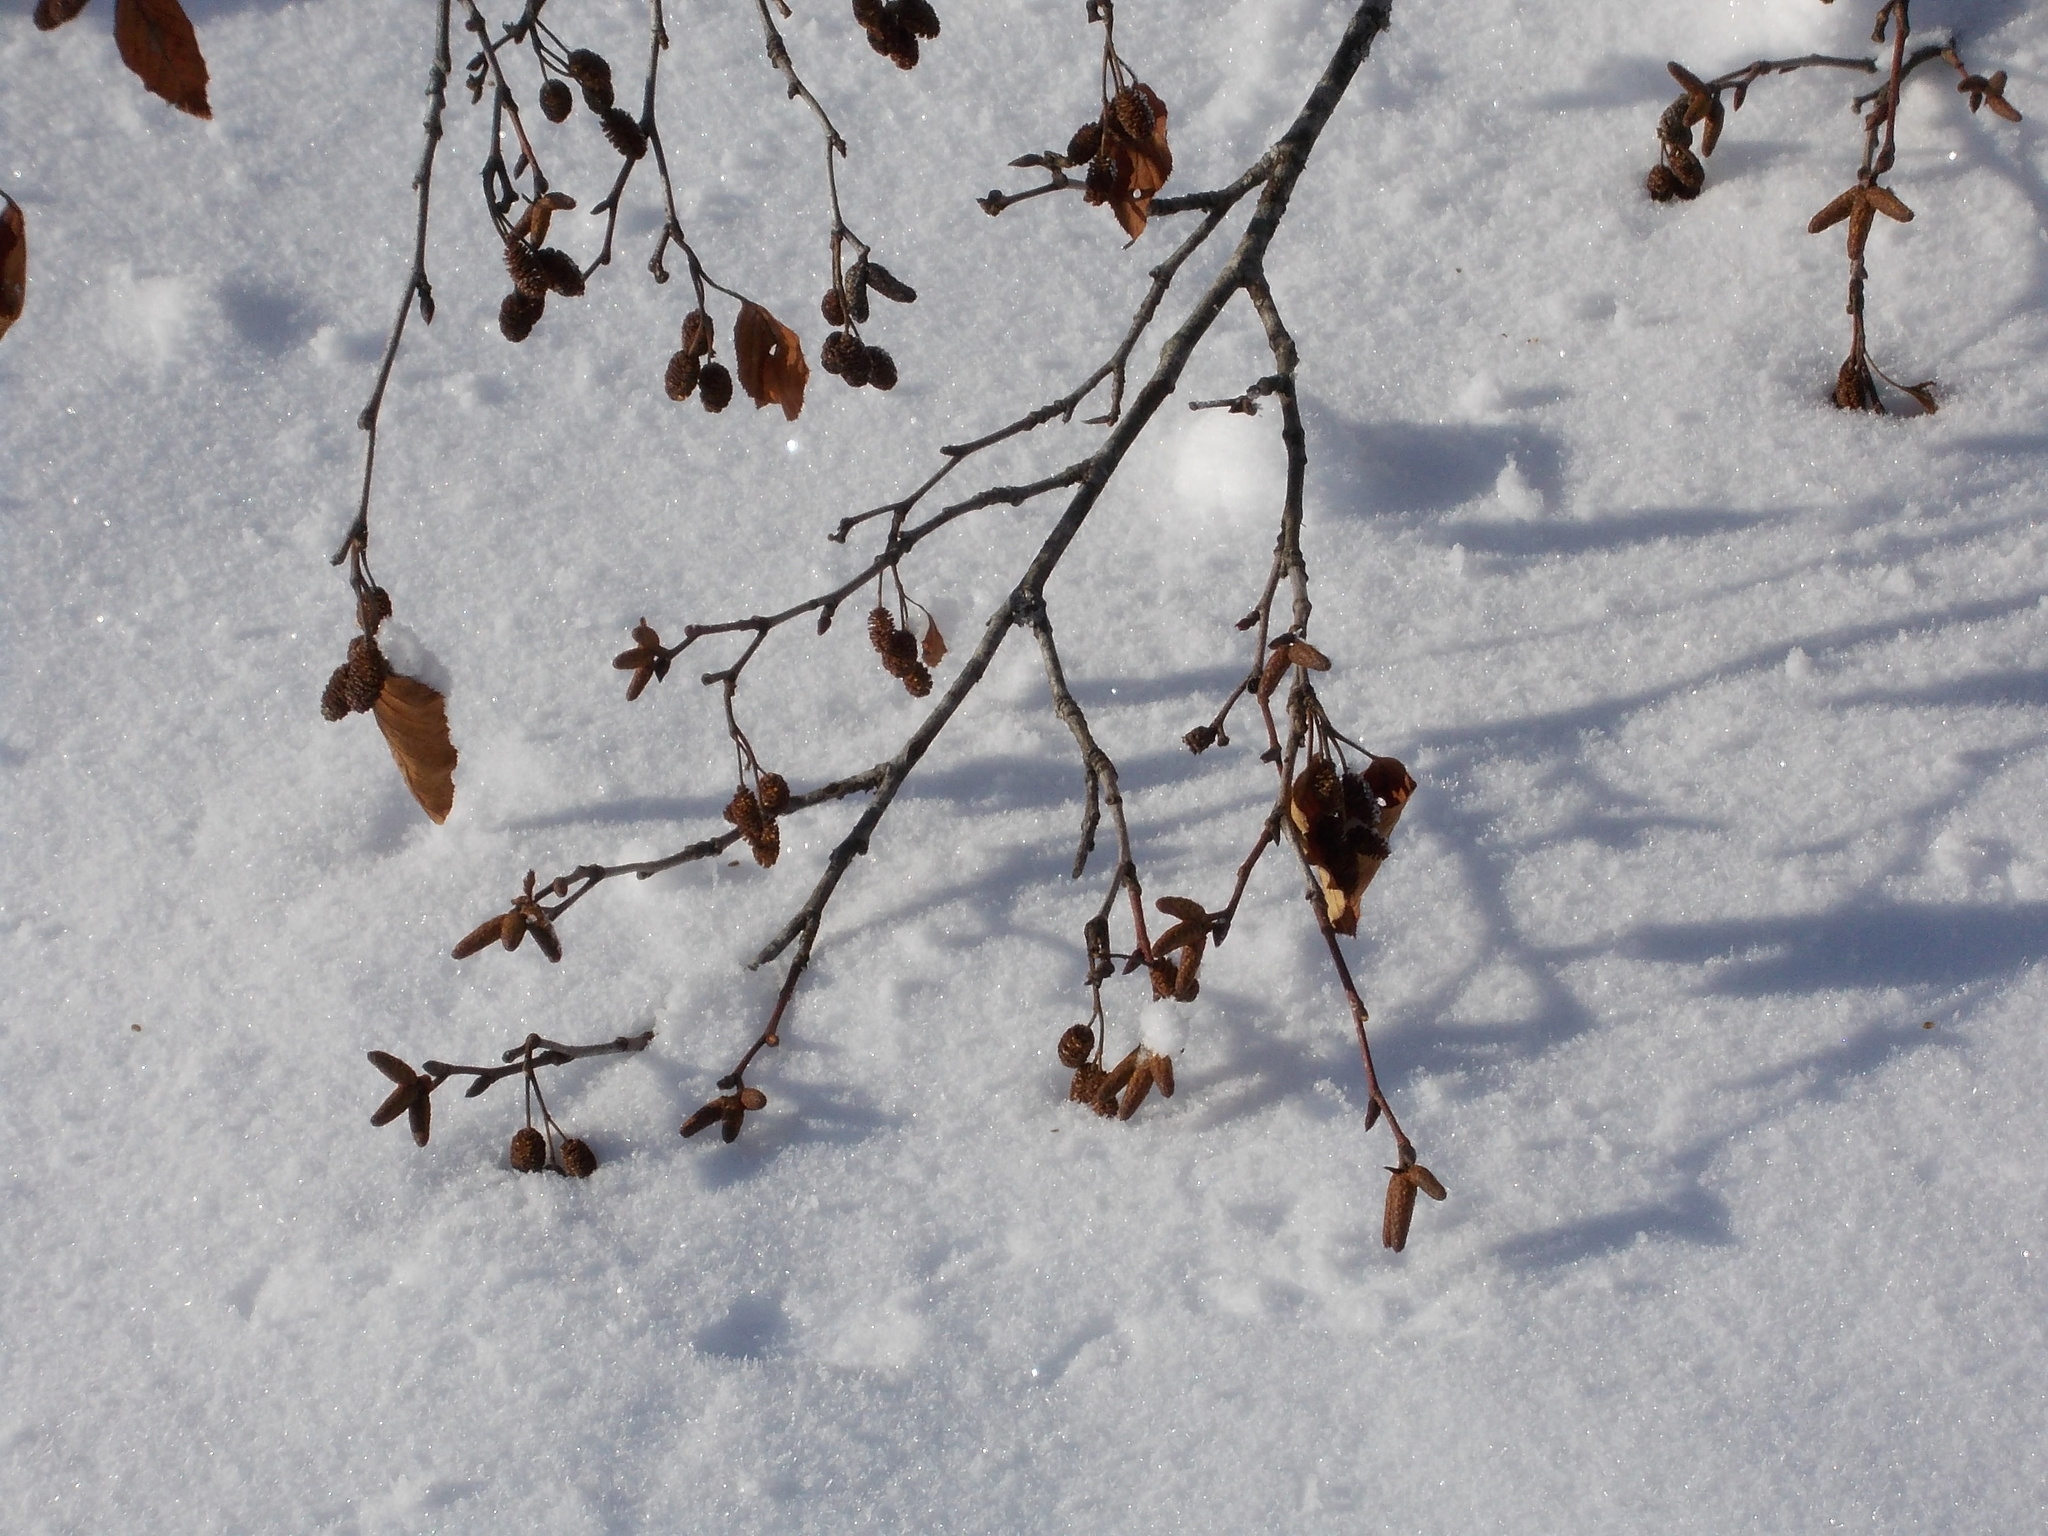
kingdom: Plantae
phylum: Tracheophyta
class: Magnoliopsida
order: Fagales
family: Betulaceae
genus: Alnus
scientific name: Alnus alnobetula
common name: Green alder
